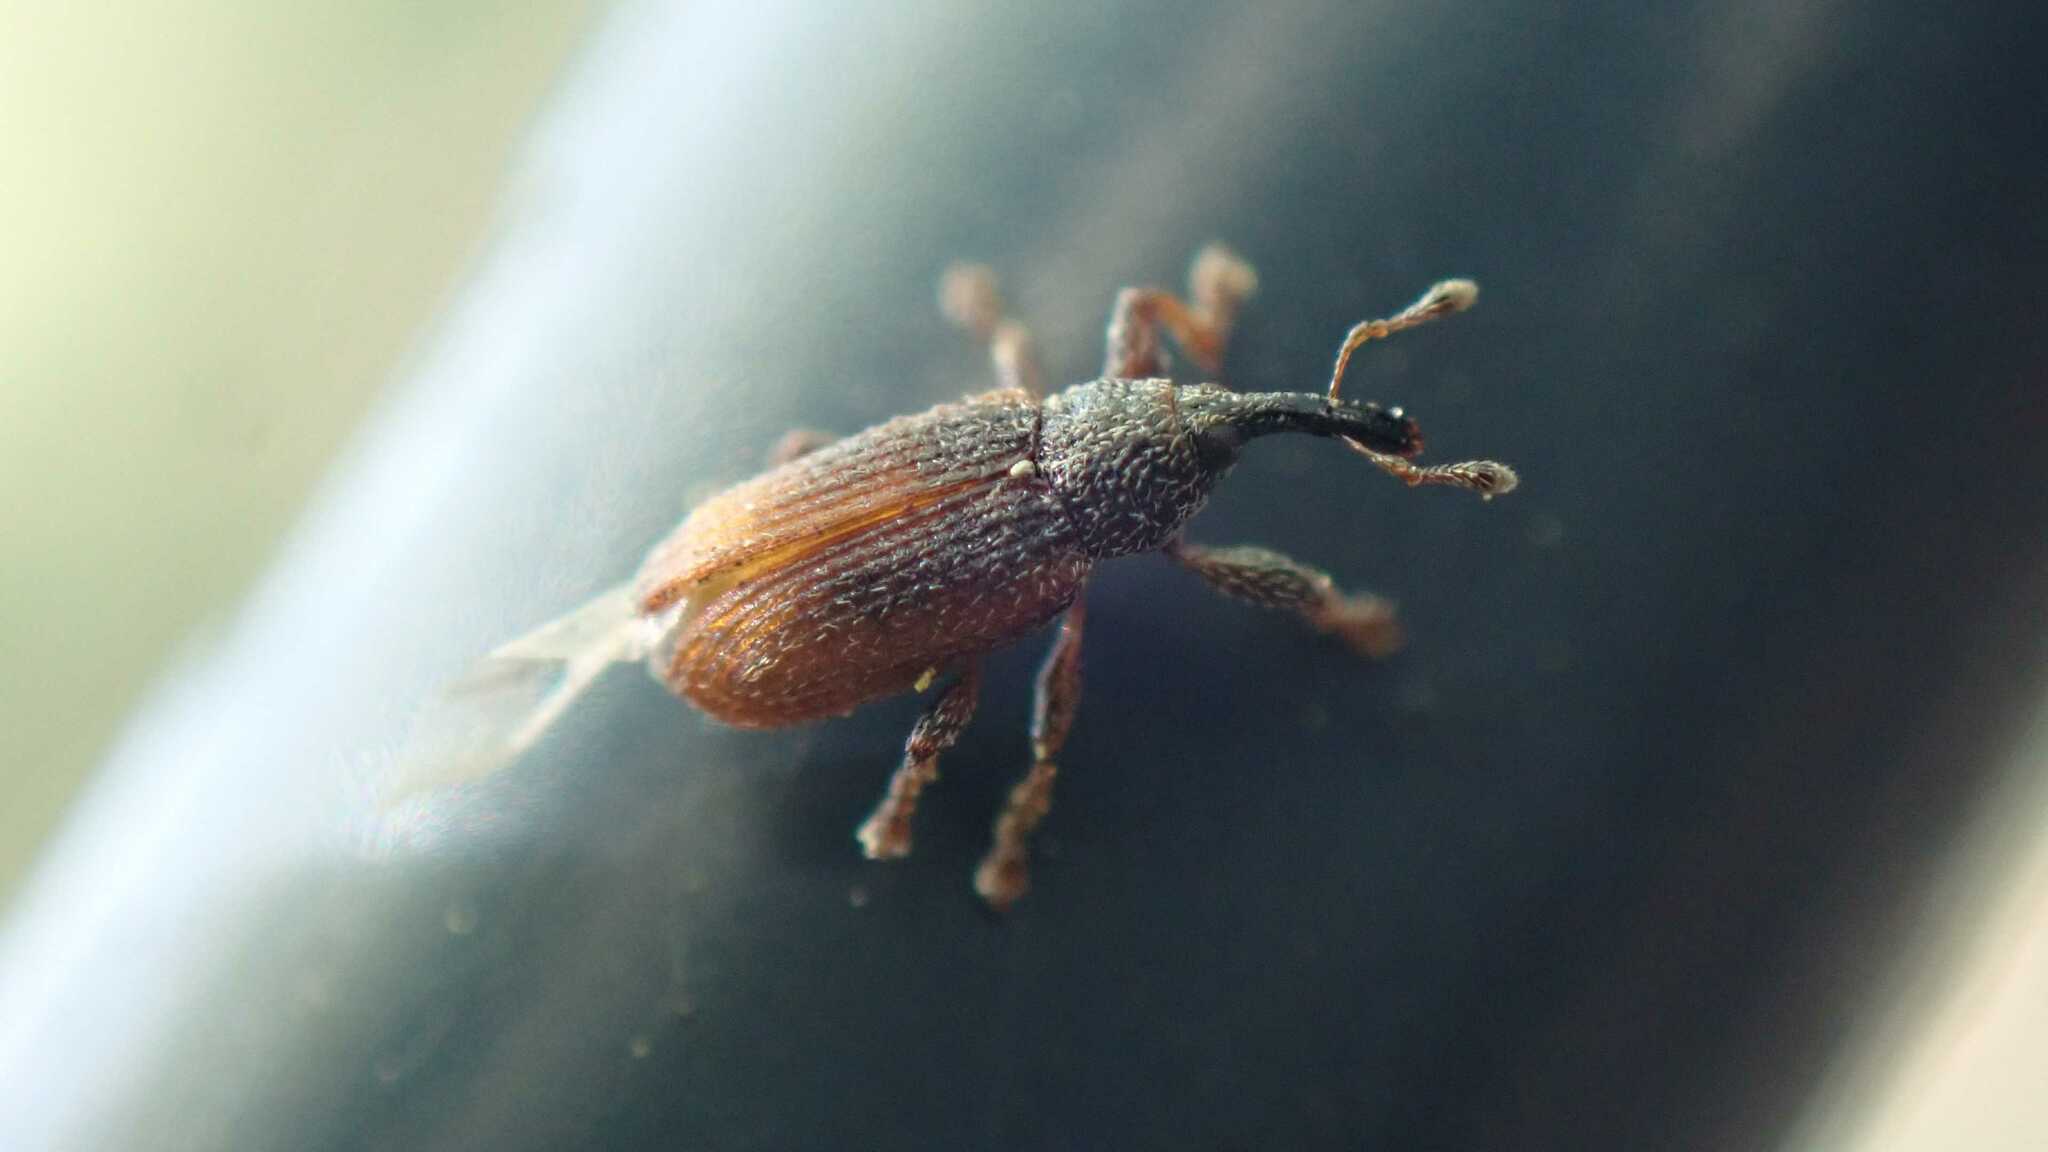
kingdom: Animalia
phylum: Arthropoda
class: Insecta
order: Coleoptera
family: Curculionidae
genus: Bradybatus
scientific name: Bradybatus kellneri
